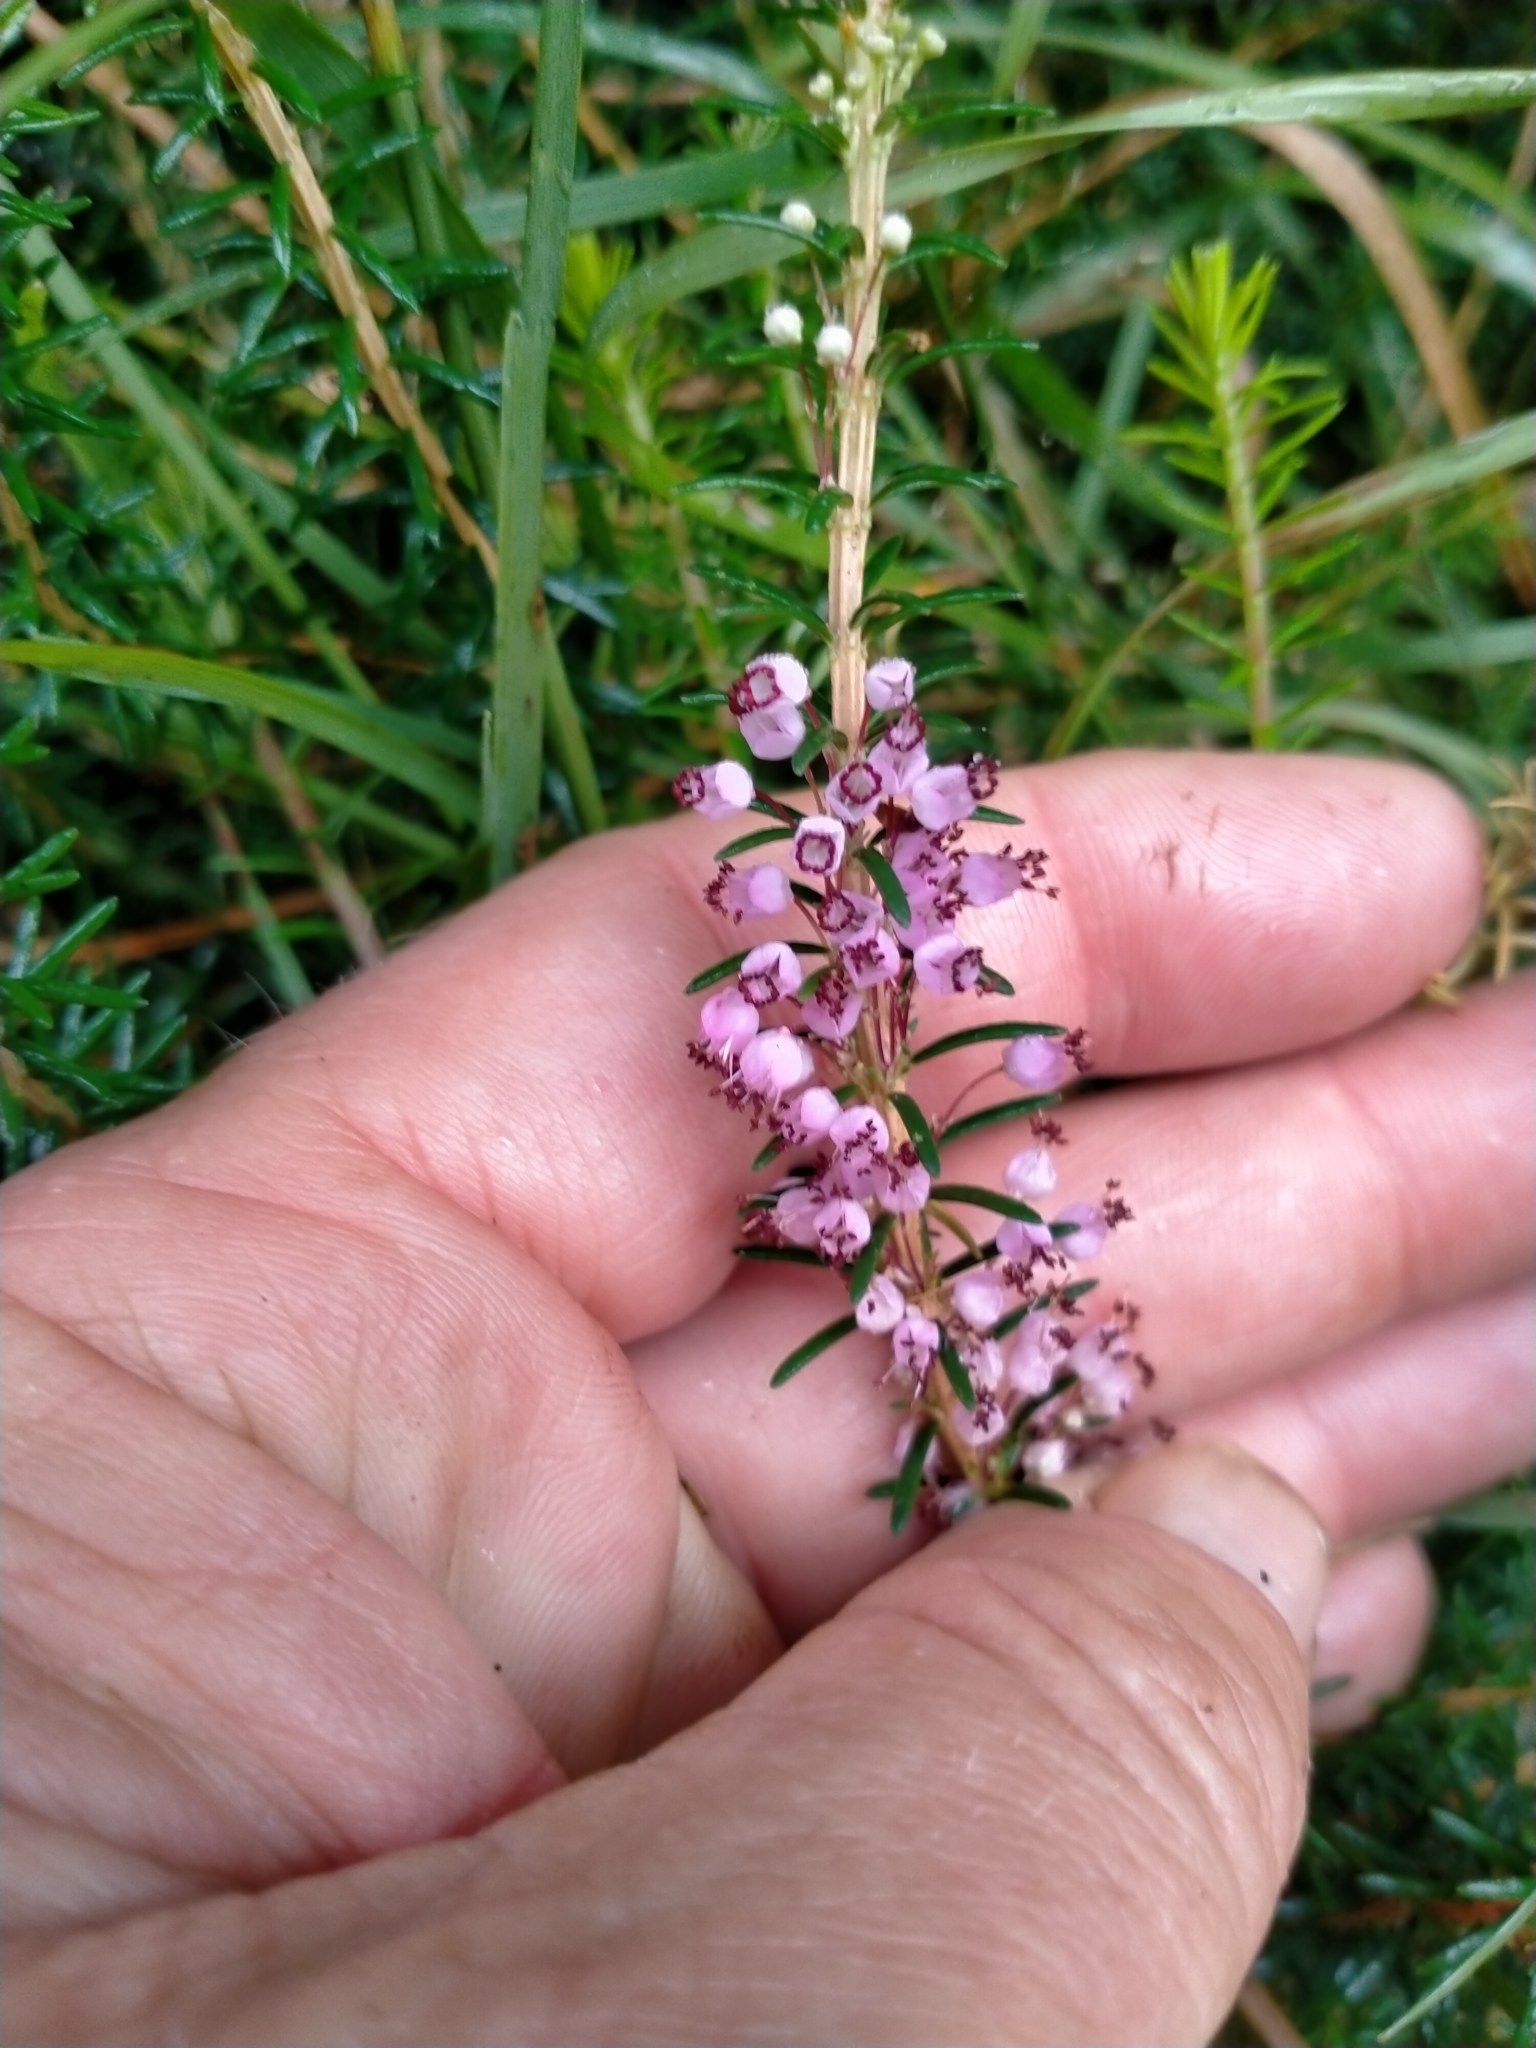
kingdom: Plantae
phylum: Tracheophyta
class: Magnoliopsida
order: Ericales
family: Ericaceae
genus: Erica
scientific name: Erica vagans
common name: Cornish heath
